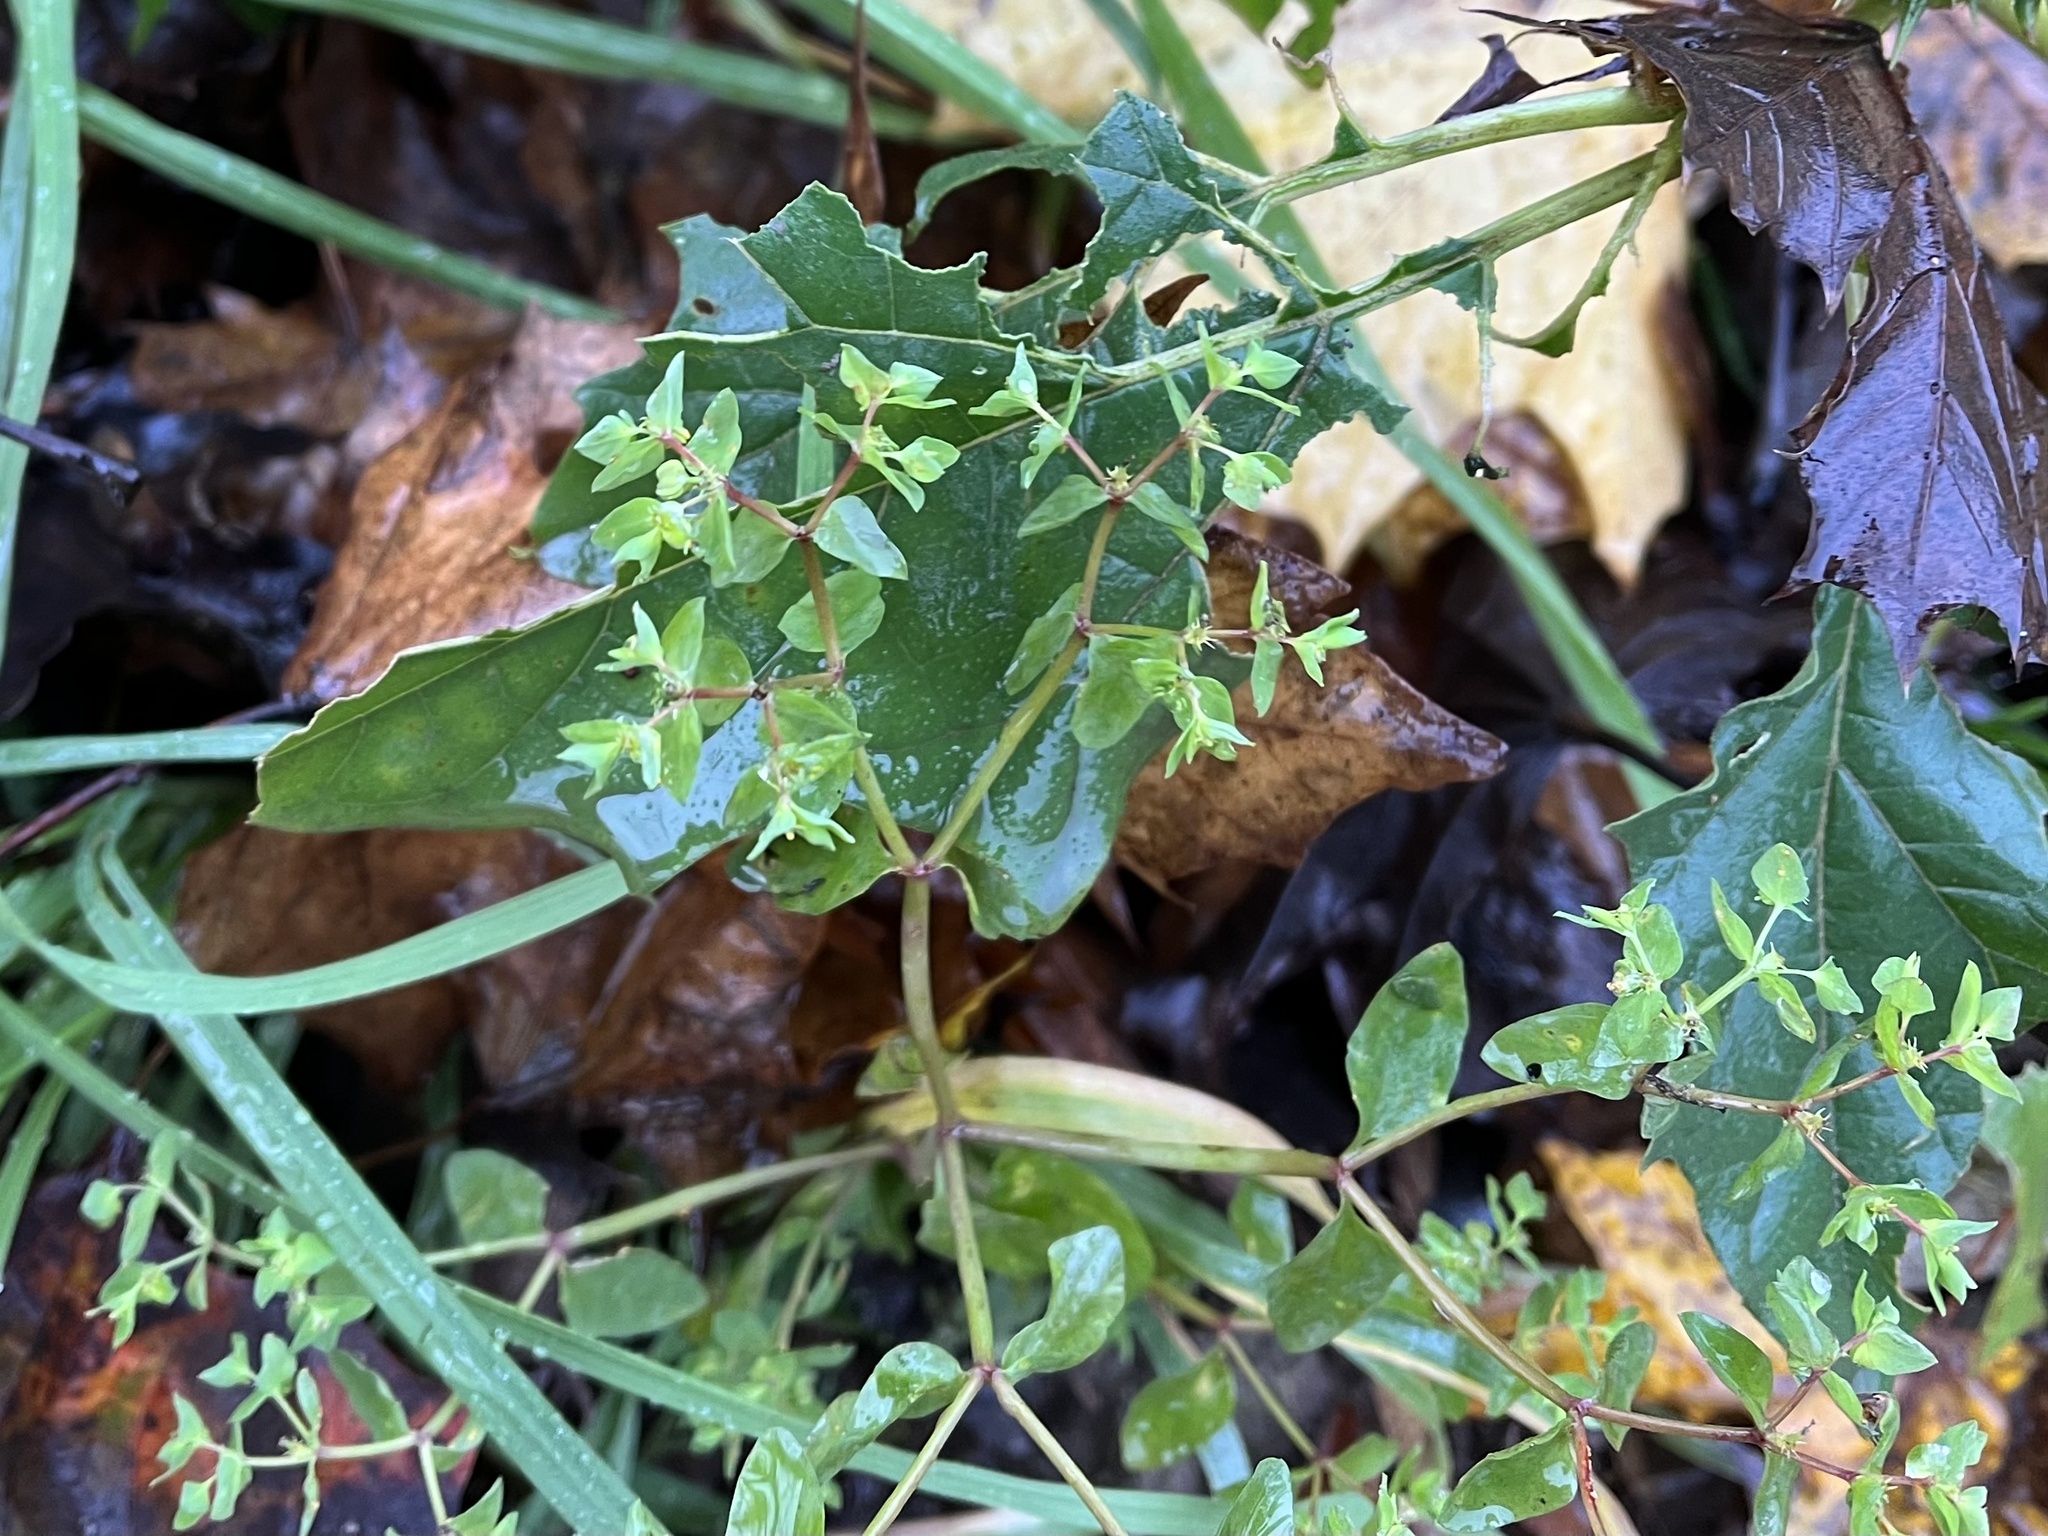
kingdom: Plantae
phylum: Tracheophyta
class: Magnoliopsida
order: Malpighiales
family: Euphorbiaceae
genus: Euphorbia
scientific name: Euphorbia peplus
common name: Petty spurge
